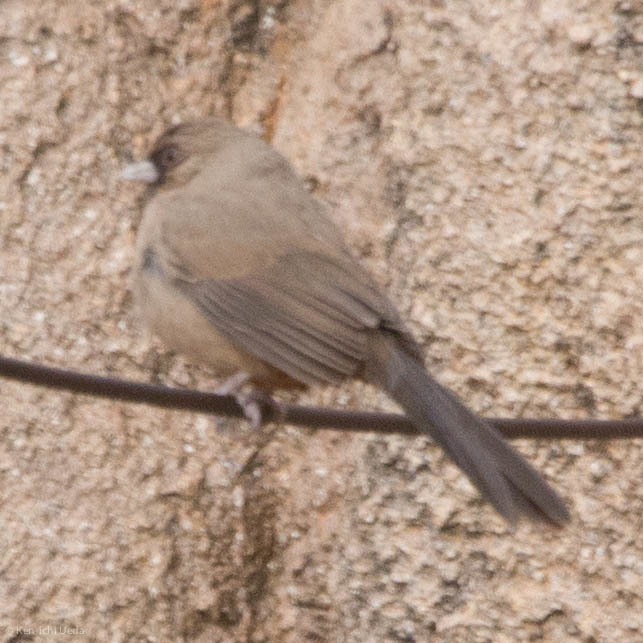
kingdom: Animalia
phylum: Chordata
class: Aves
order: Passeriformes
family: Passerellidae
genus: Melozone
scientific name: Melozone aberti
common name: Abert's towhee
